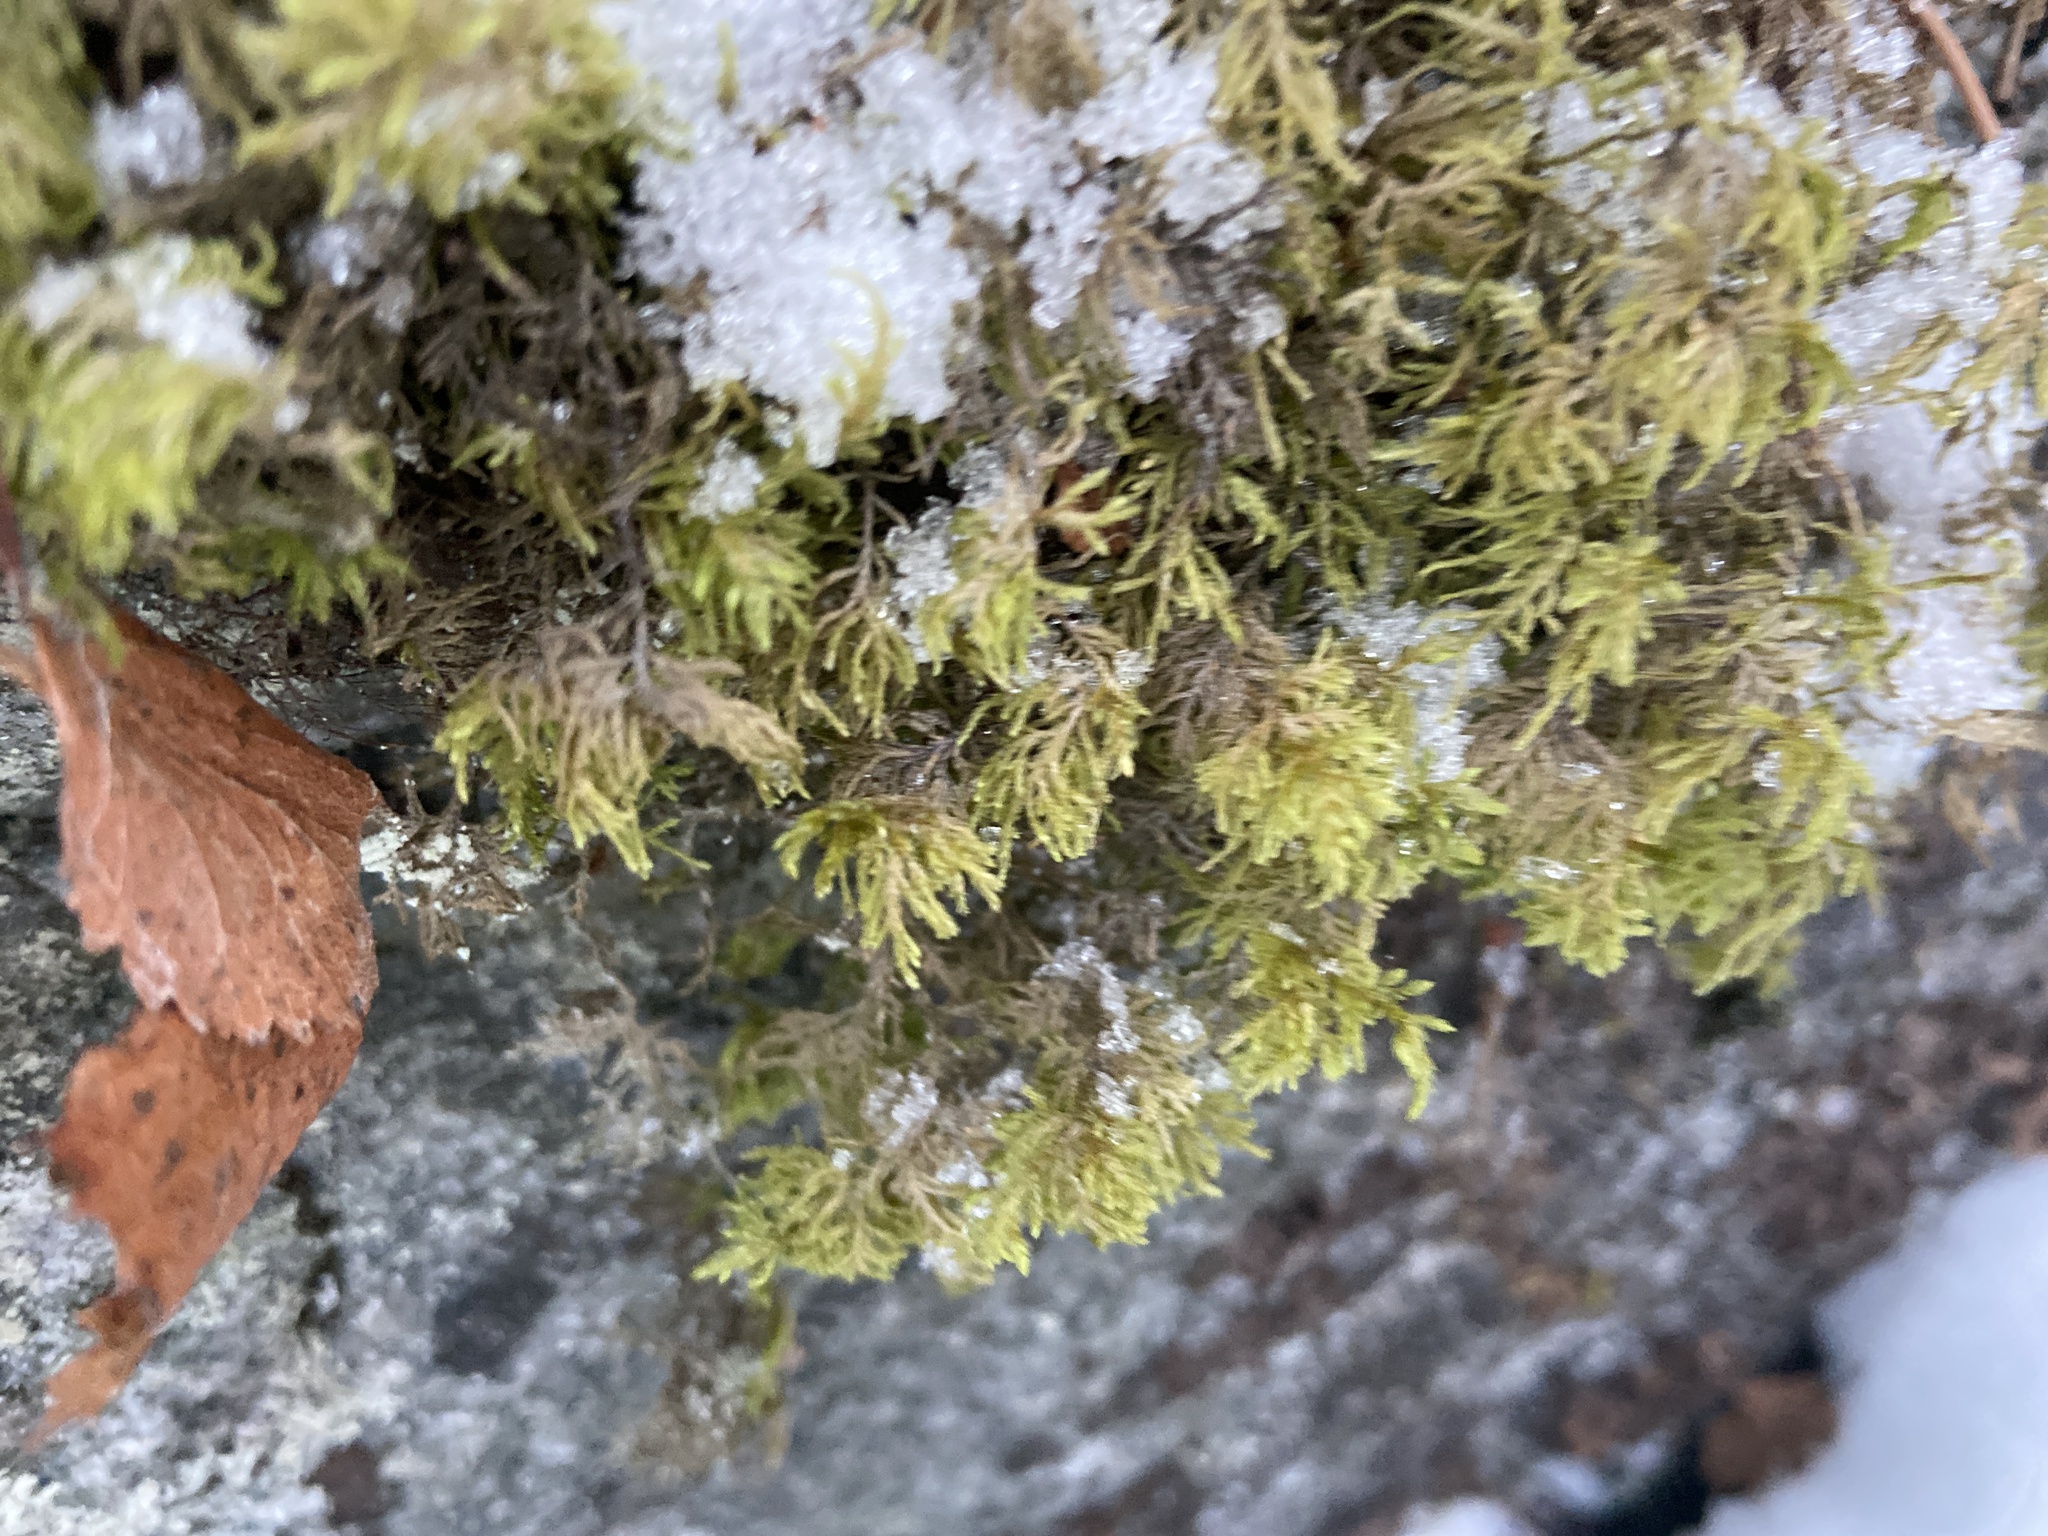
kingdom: Plantae
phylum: Bryophyta
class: Bryopsida
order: Hypnales
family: Hylocomiaceae
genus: Hylocomium
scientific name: Hylocomium splendens
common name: Stairstep moss
